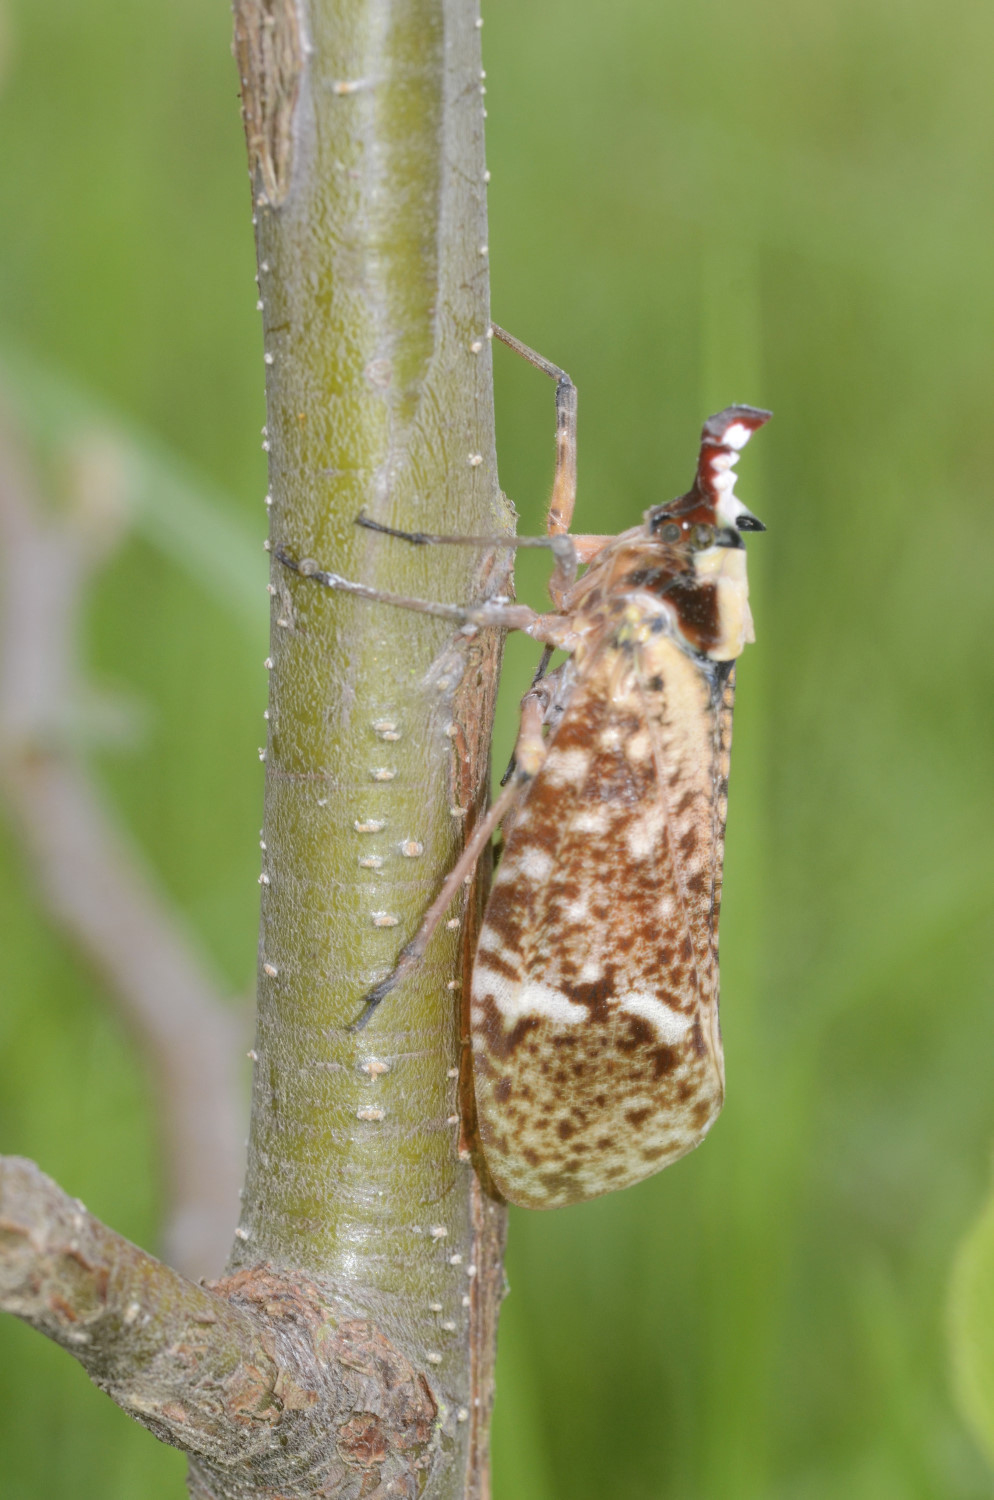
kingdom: Animalia
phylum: Arthropoda
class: Insecta
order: Hemiptera
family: Fulgoridae
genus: Phrictus
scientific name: Phrictus moebiusi
